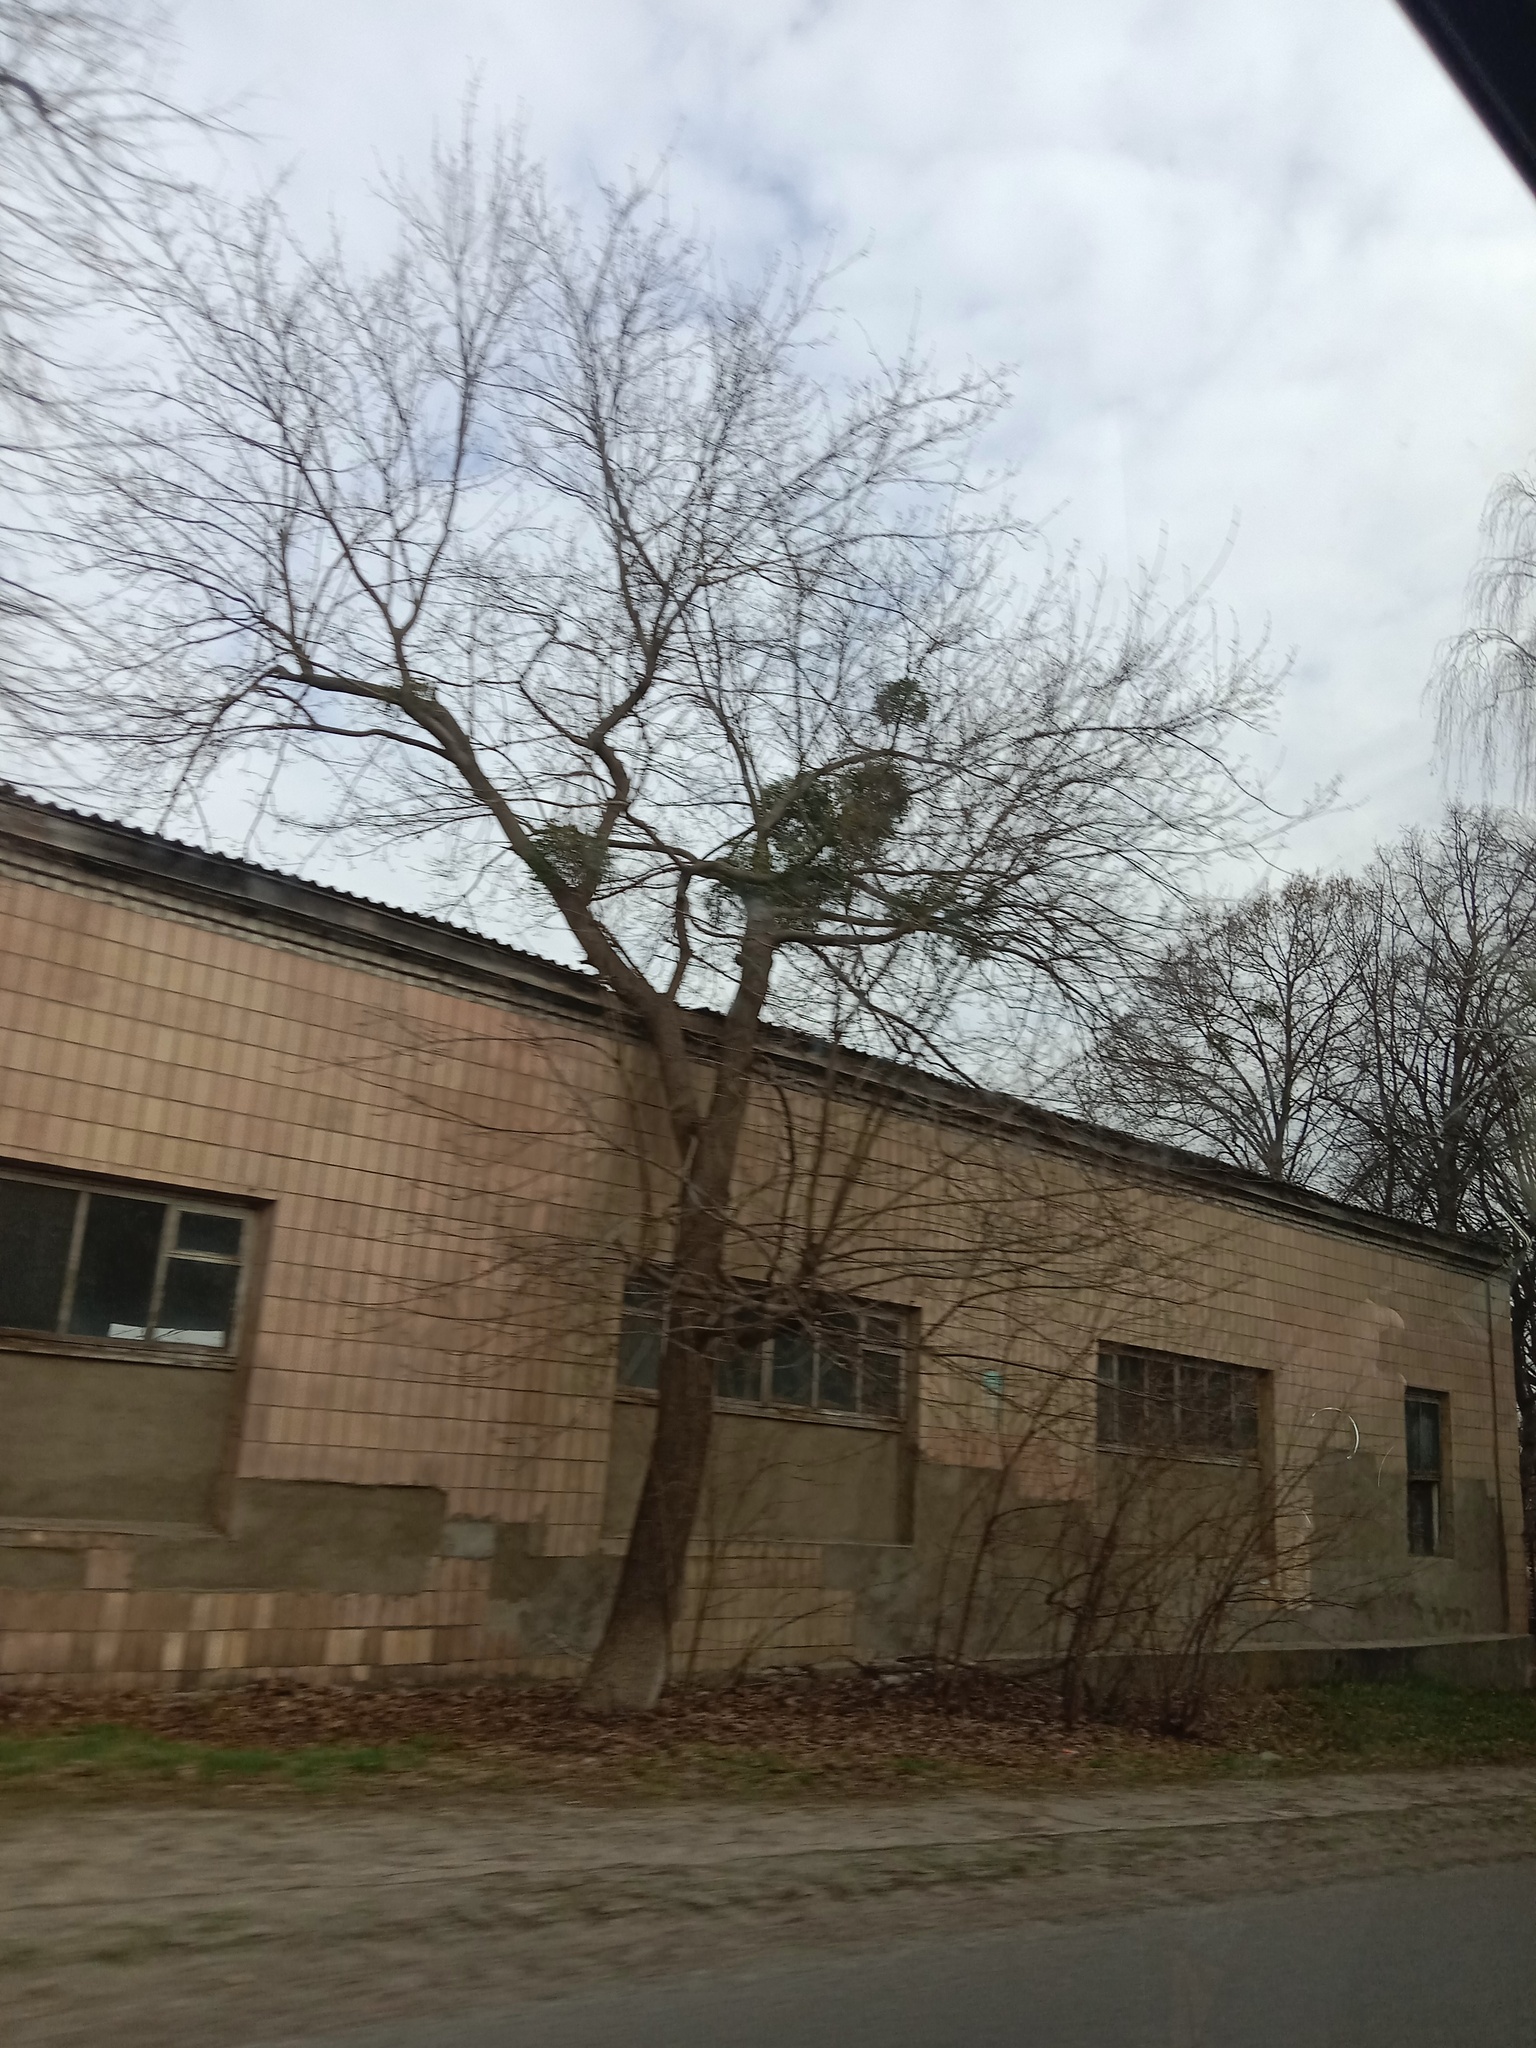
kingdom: Plantae
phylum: Tracheophyta
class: Magnoliopsida
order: Santalales
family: Viscaceae
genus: Viscum
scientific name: Viscum album
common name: Mistletoe
